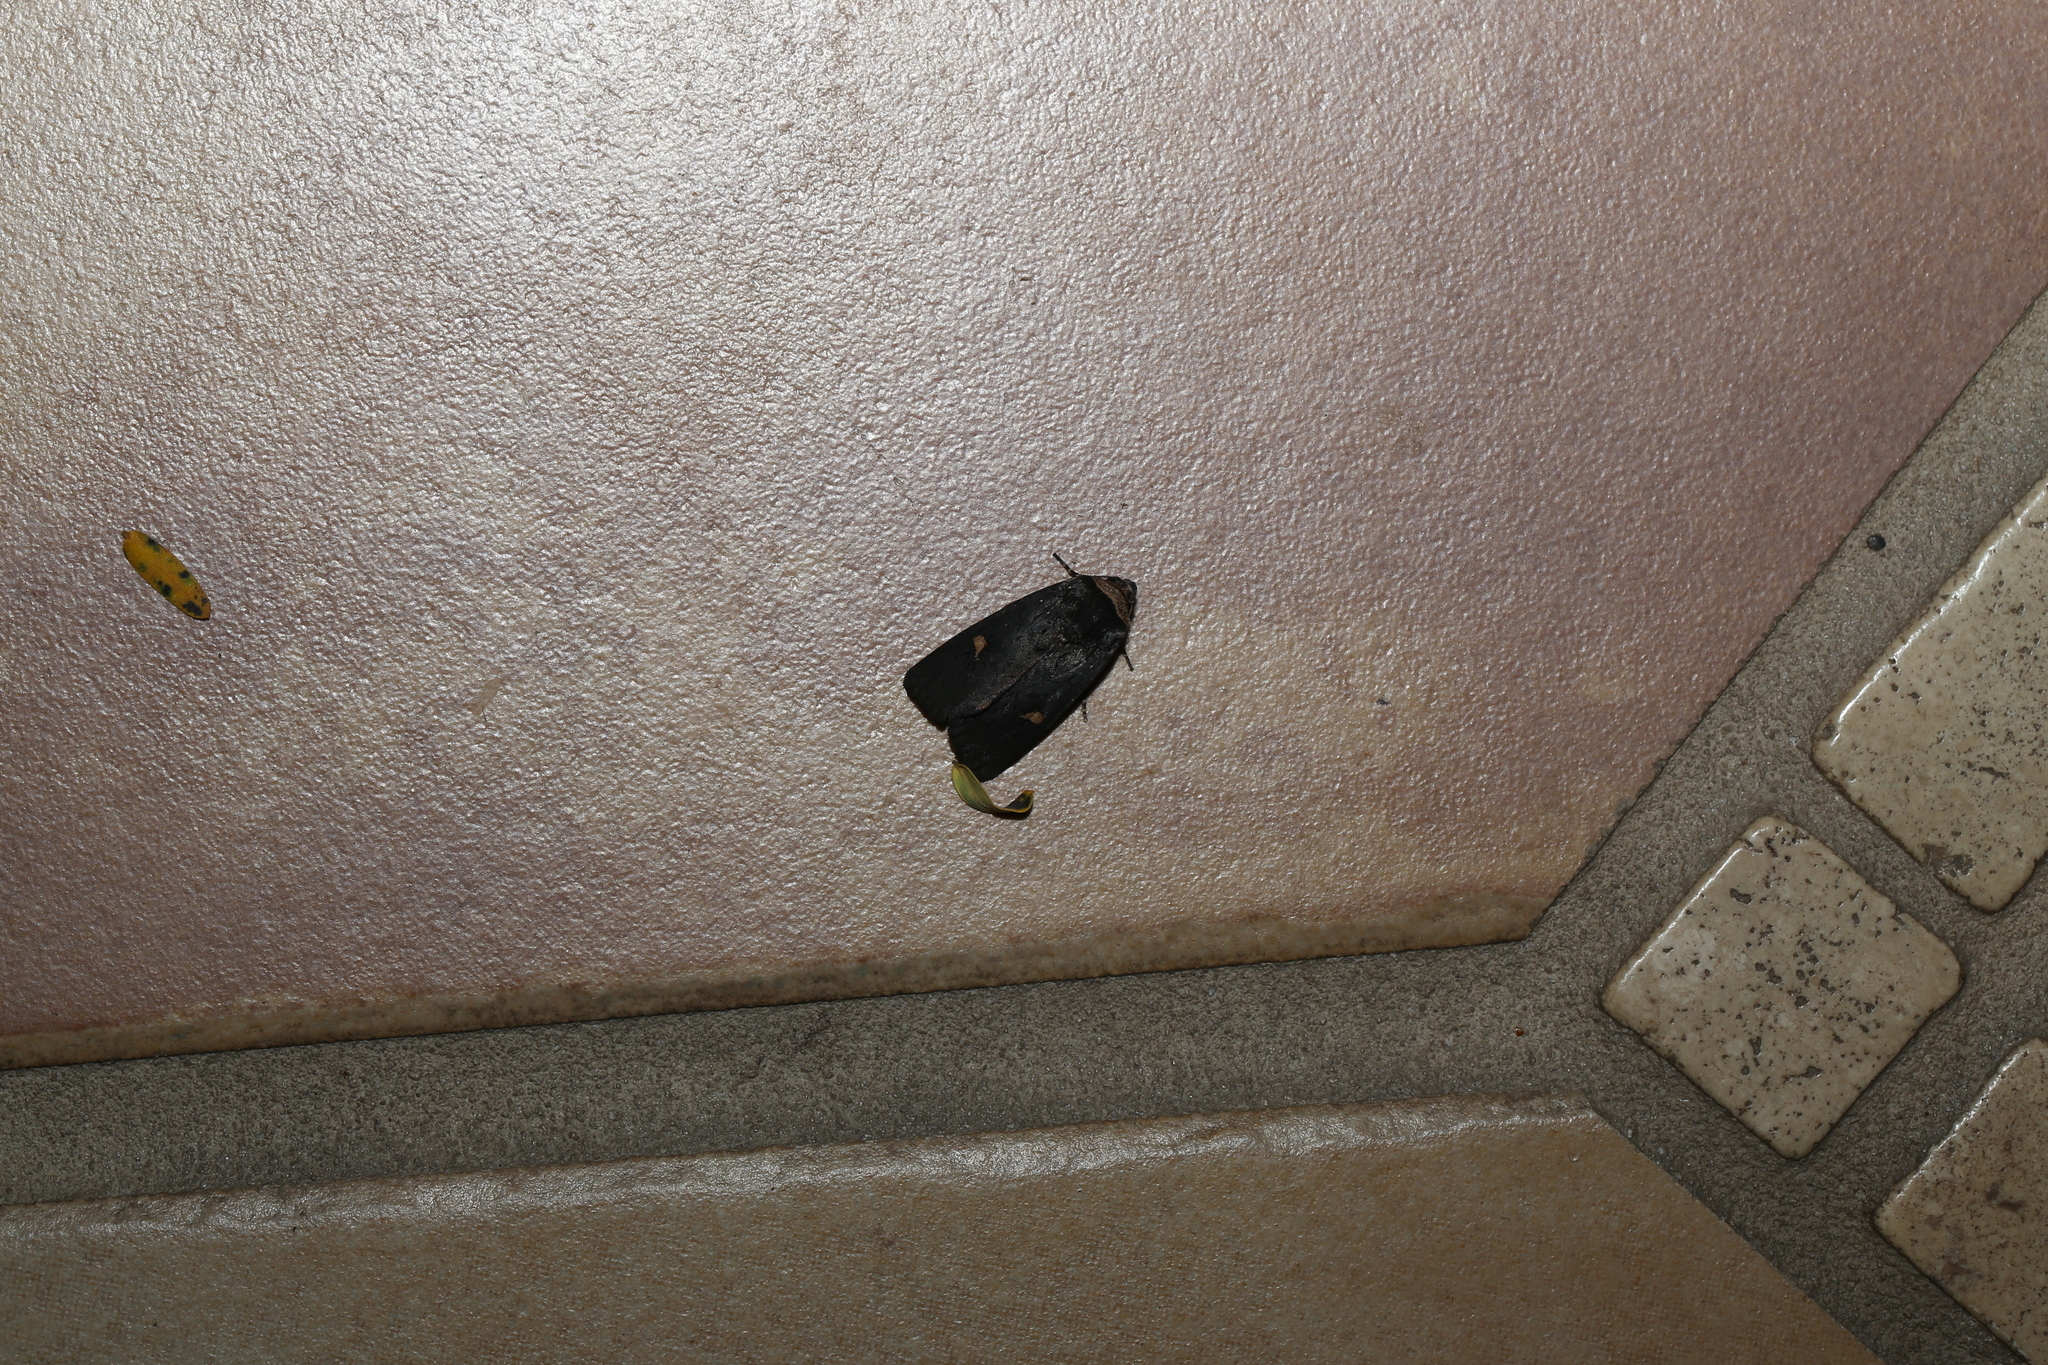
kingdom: Animalia
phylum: Arthropoda
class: Insecta
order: Lepidoptera
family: Noctuidae
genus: Proteuxoa
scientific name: Proteuxoa testaceicollis
